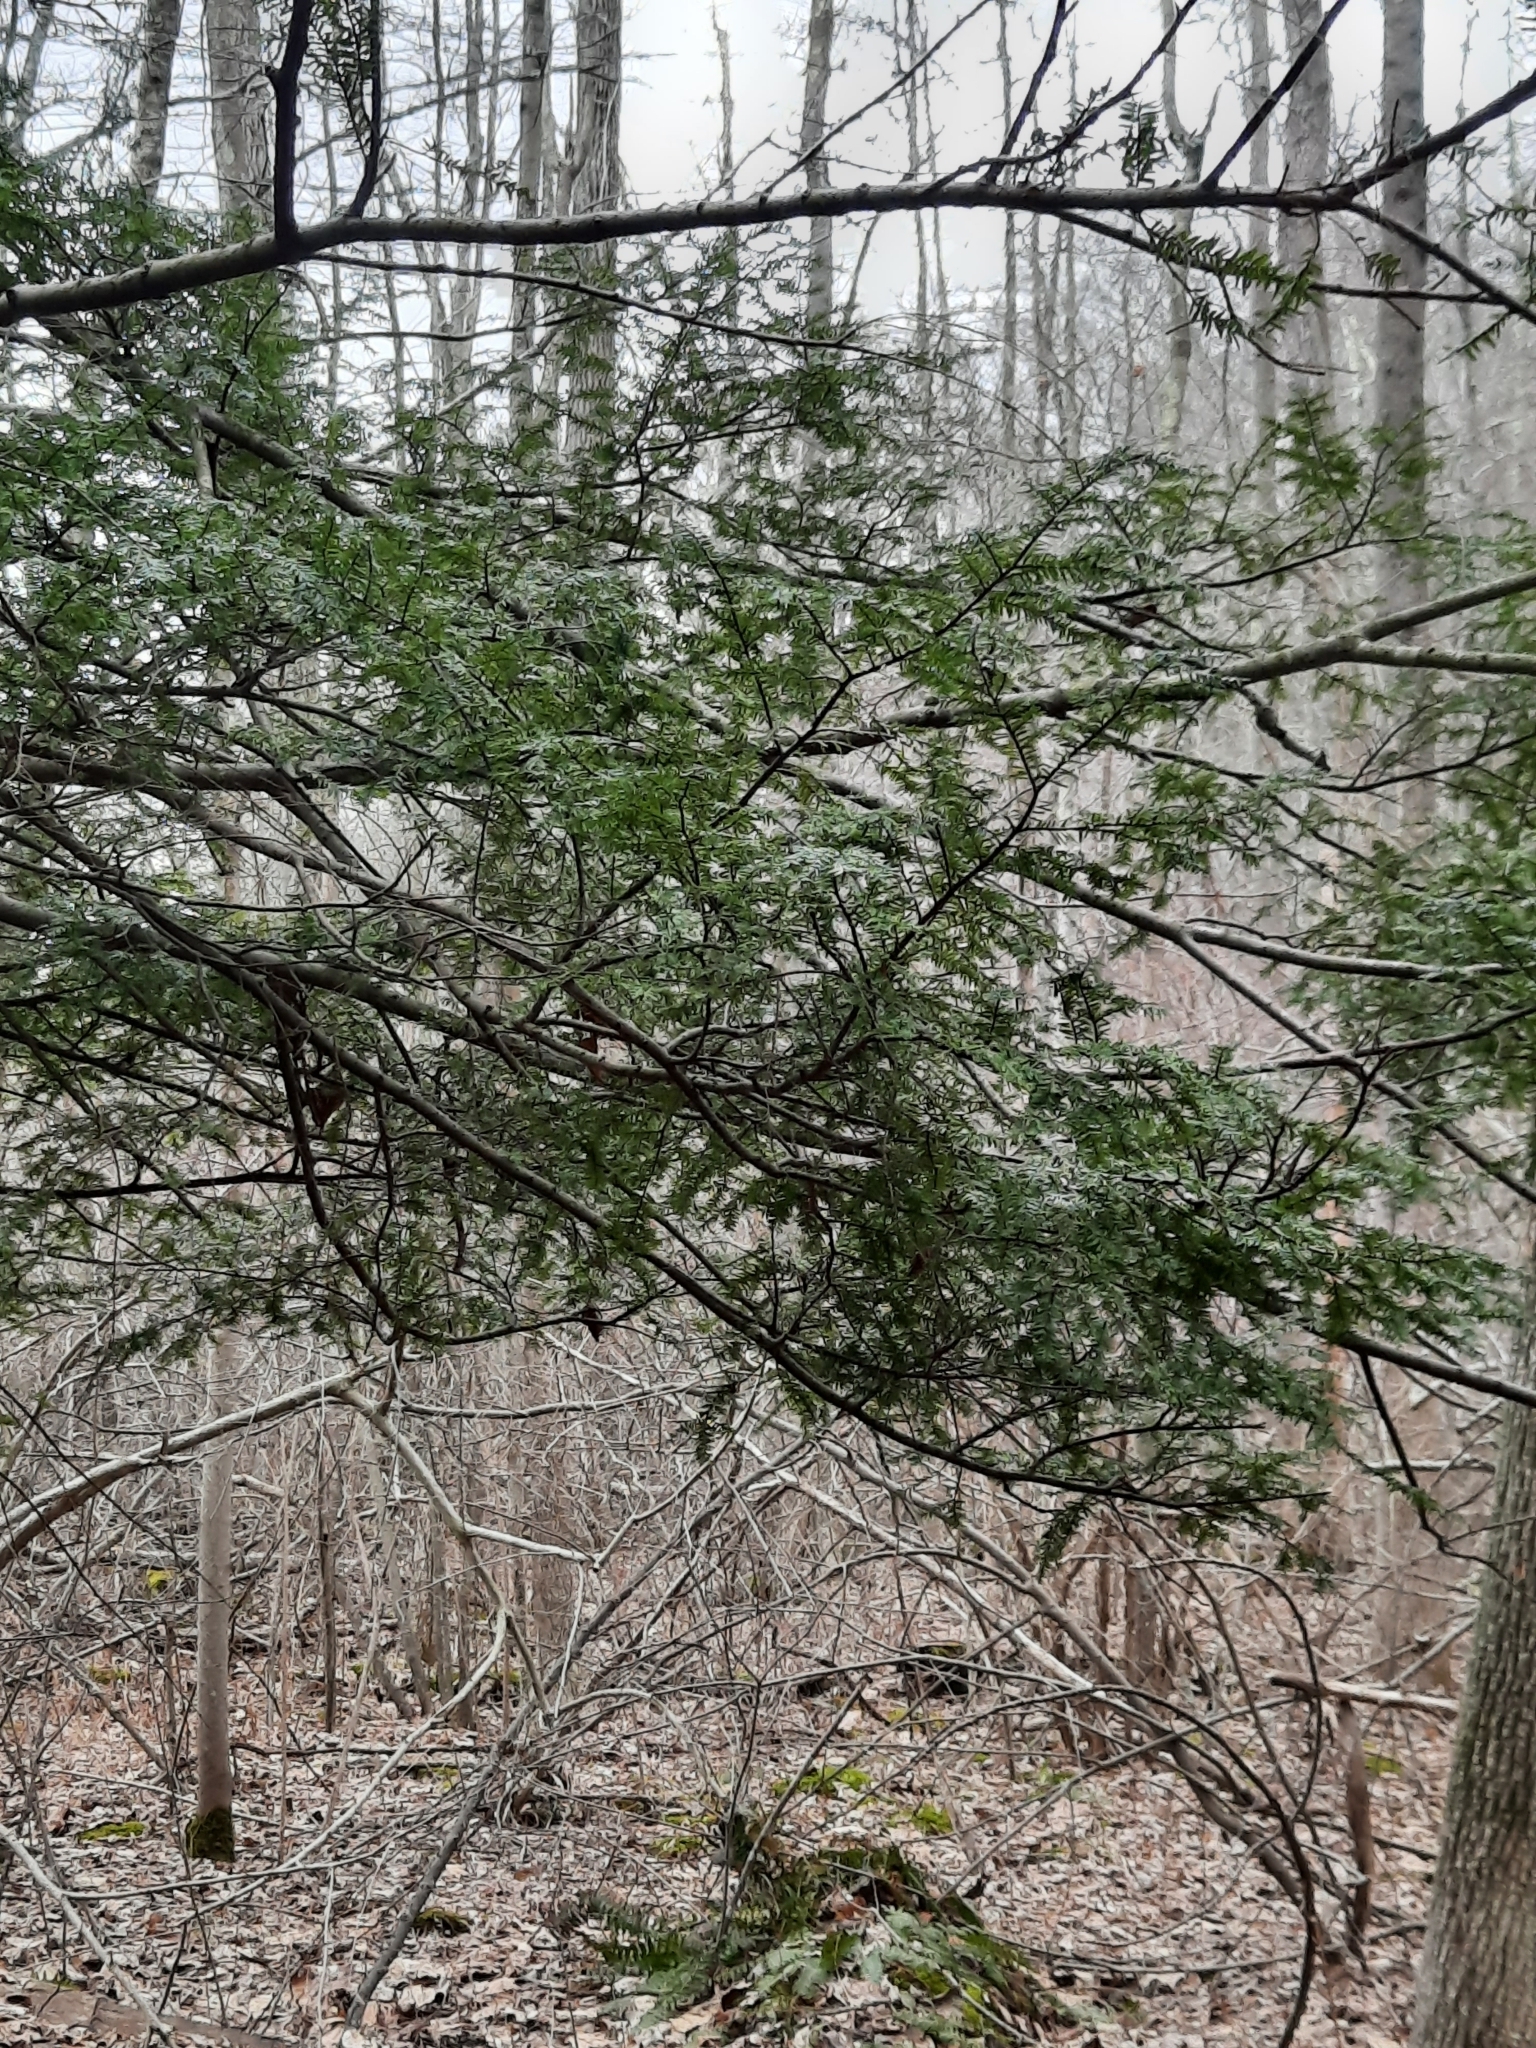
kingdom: Plantae
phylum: Tracheophyta
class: Pinopsida
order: Pinales
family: Pinaceae
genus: Tsuga
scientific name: Tsuga canadensis
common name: Eastern hemlock
